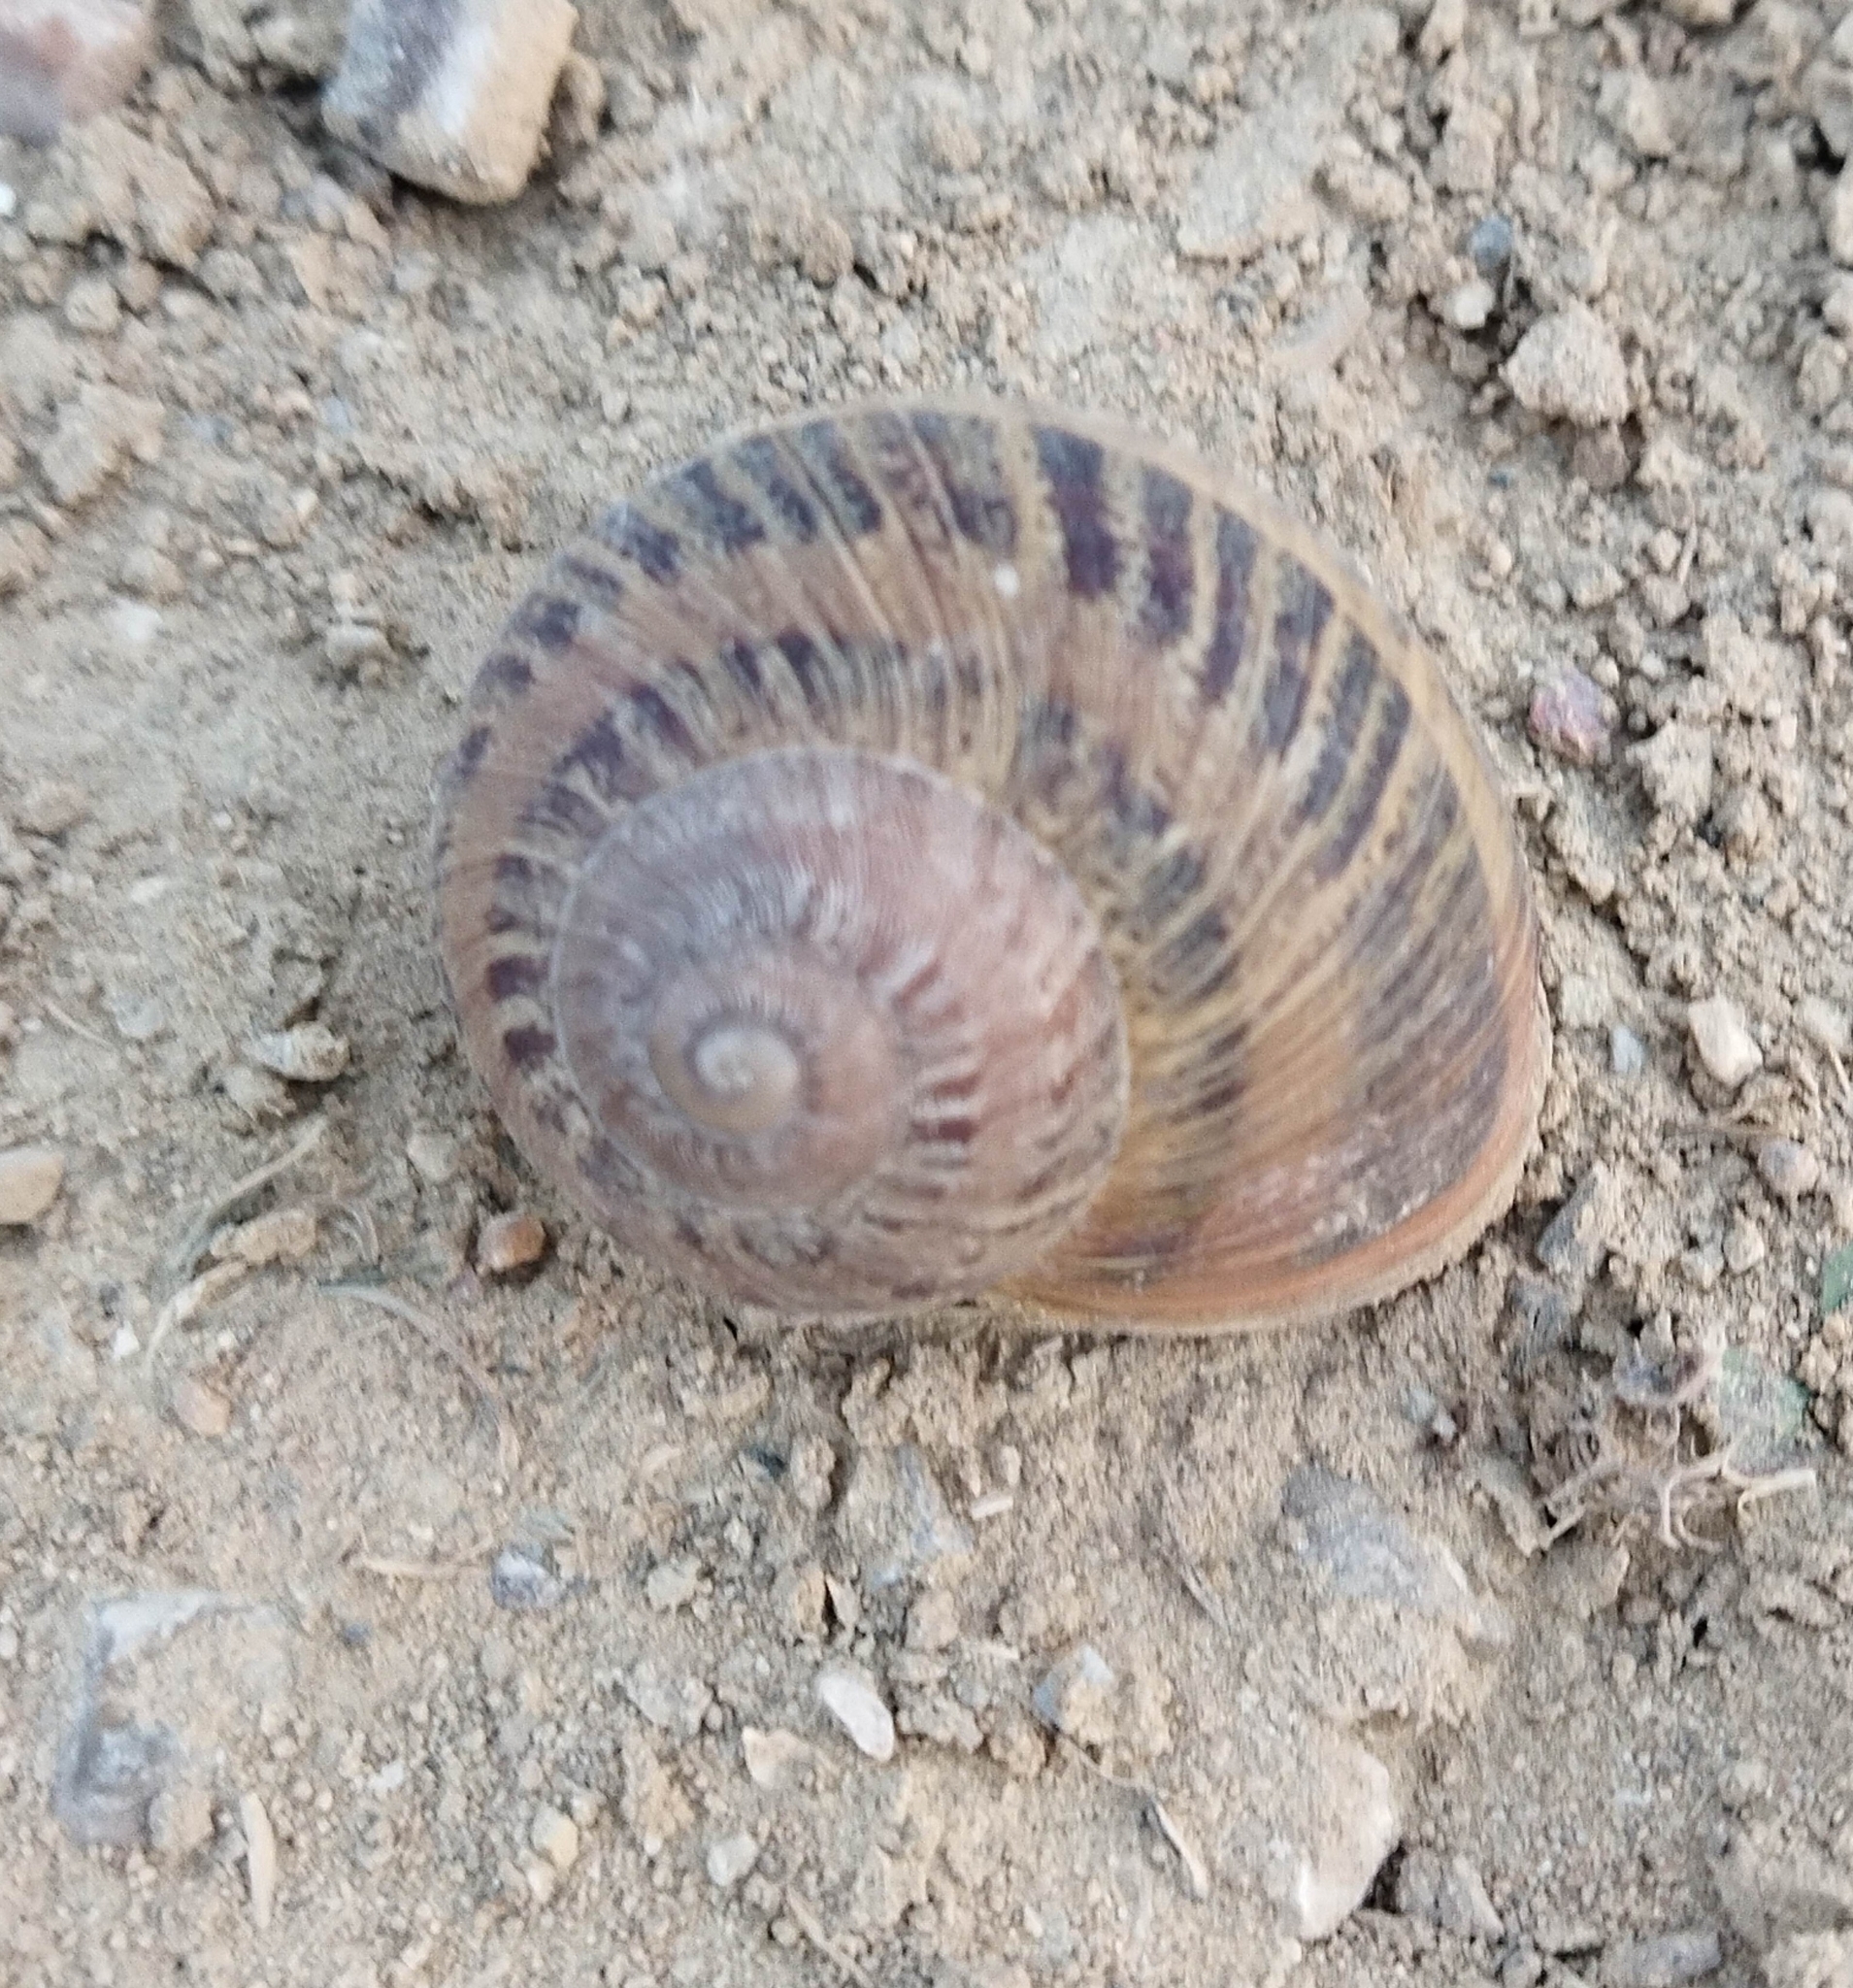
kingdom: Animalia
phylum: Mollusca
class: Gastropoda
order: Stylommatophora
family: Helicidae
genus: Cornu
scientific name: Cornu aspersum
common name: Brown garden snail
